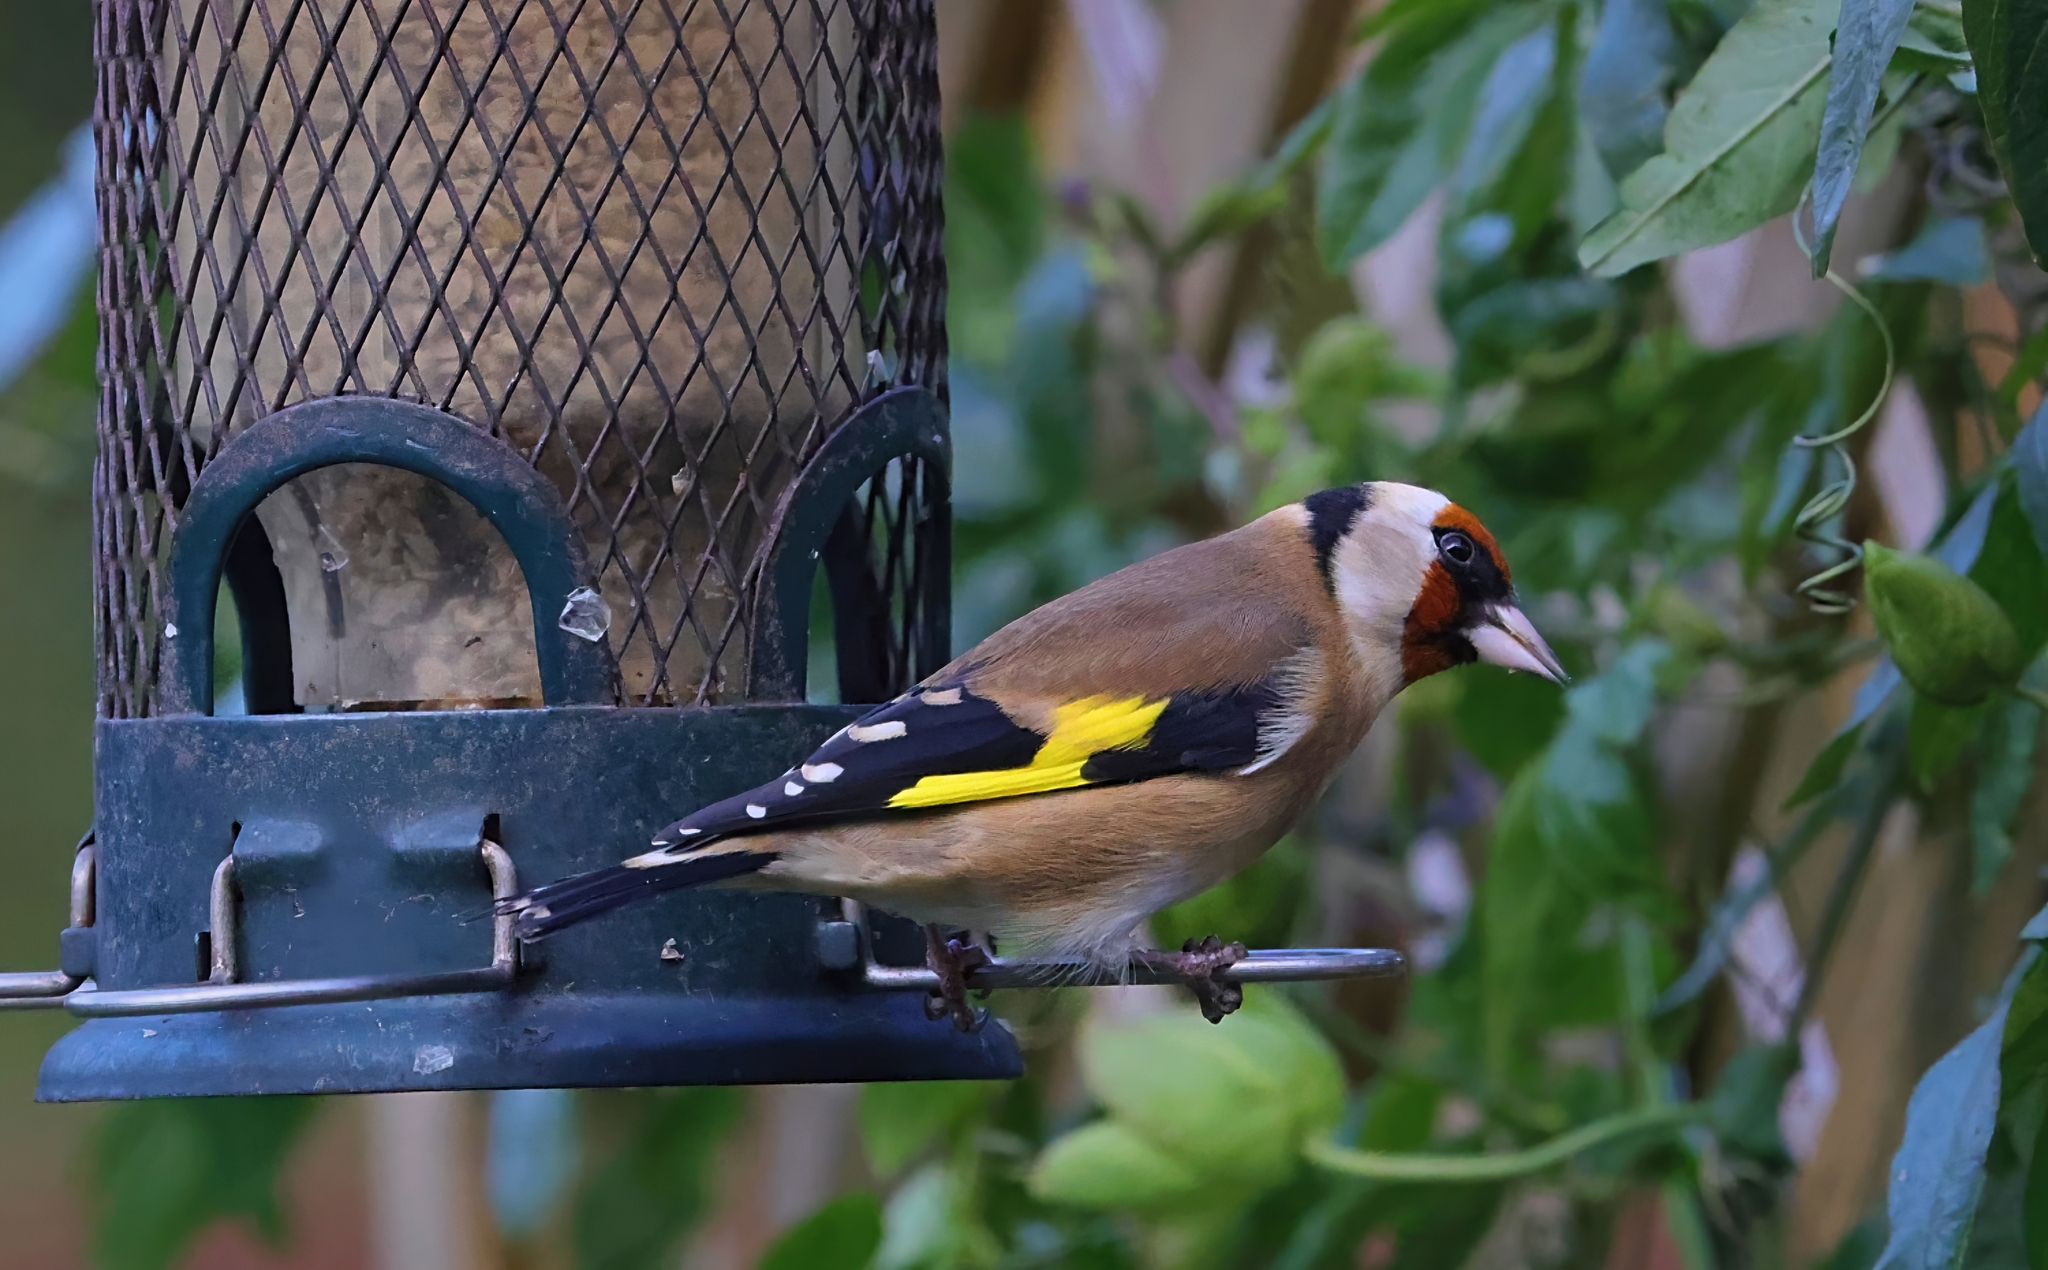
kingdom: Animalia
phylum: Chordata
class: Aves
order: Passeriformes
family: Fringillidae
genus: Carduelis
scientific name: Carduelis carduelis
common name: European goldfinch
